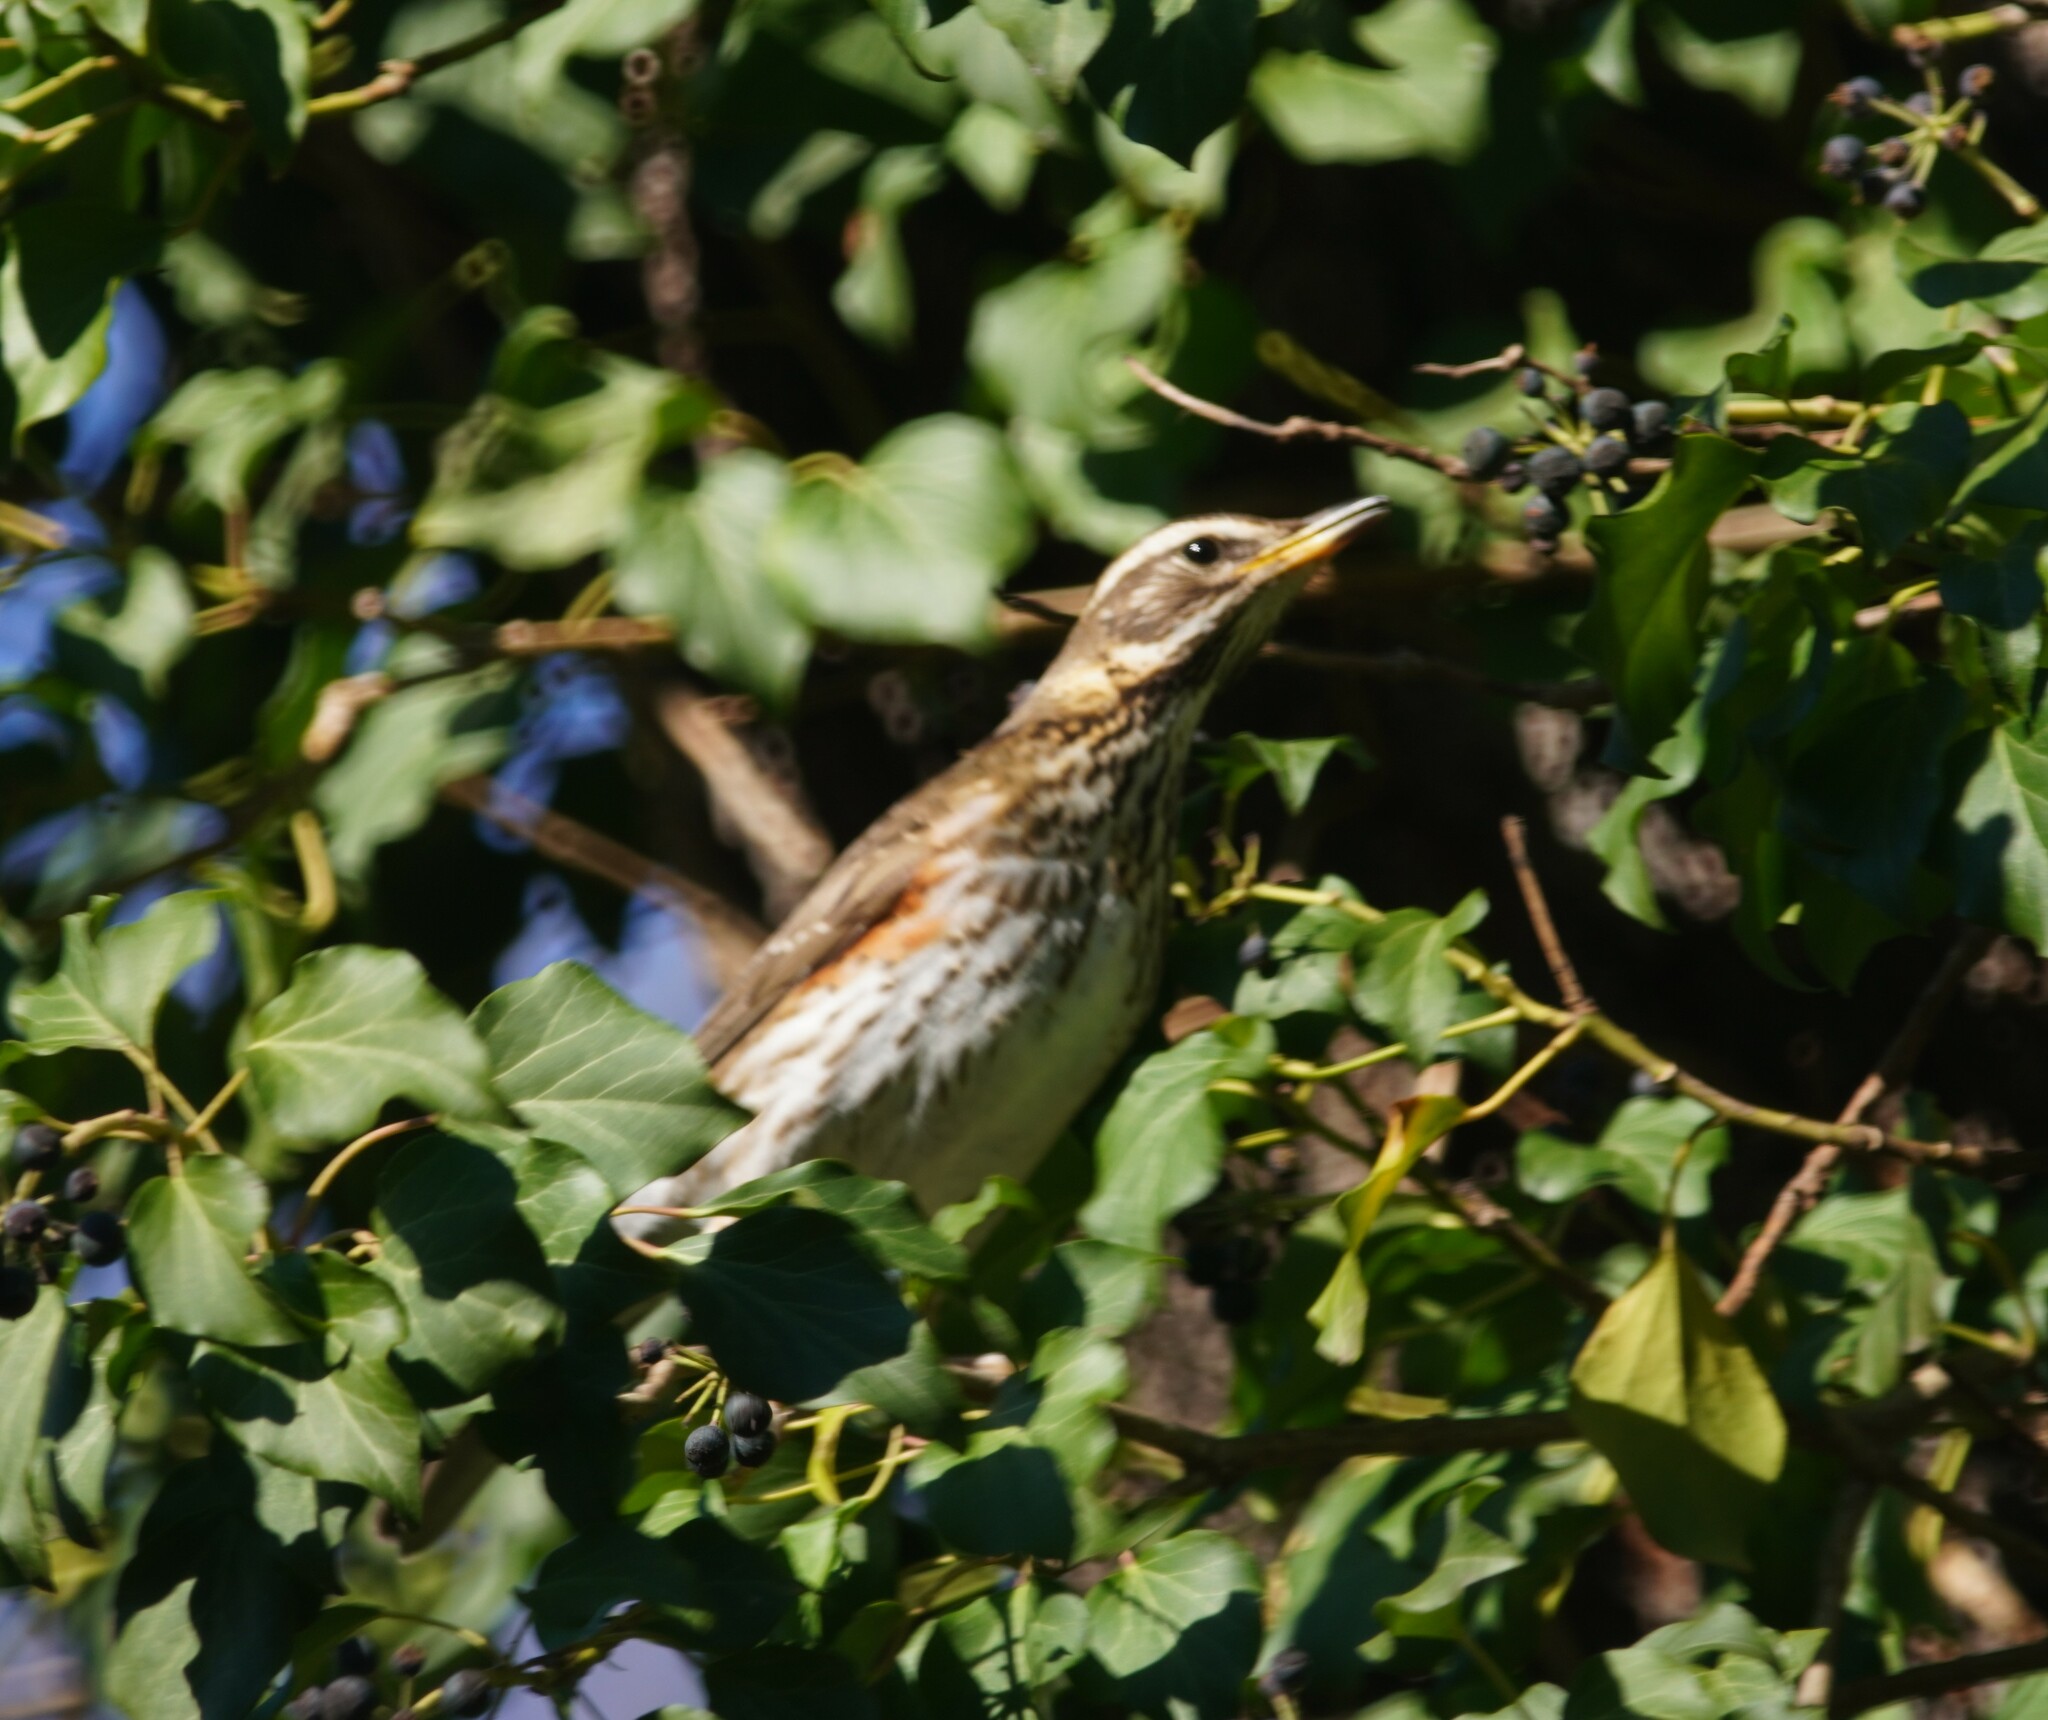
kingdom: Animalia
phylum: Chordata
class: Aves
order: Passeriformes
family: Turdidae
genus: Turdus
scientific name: Turdus iliacus
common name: Redwing
